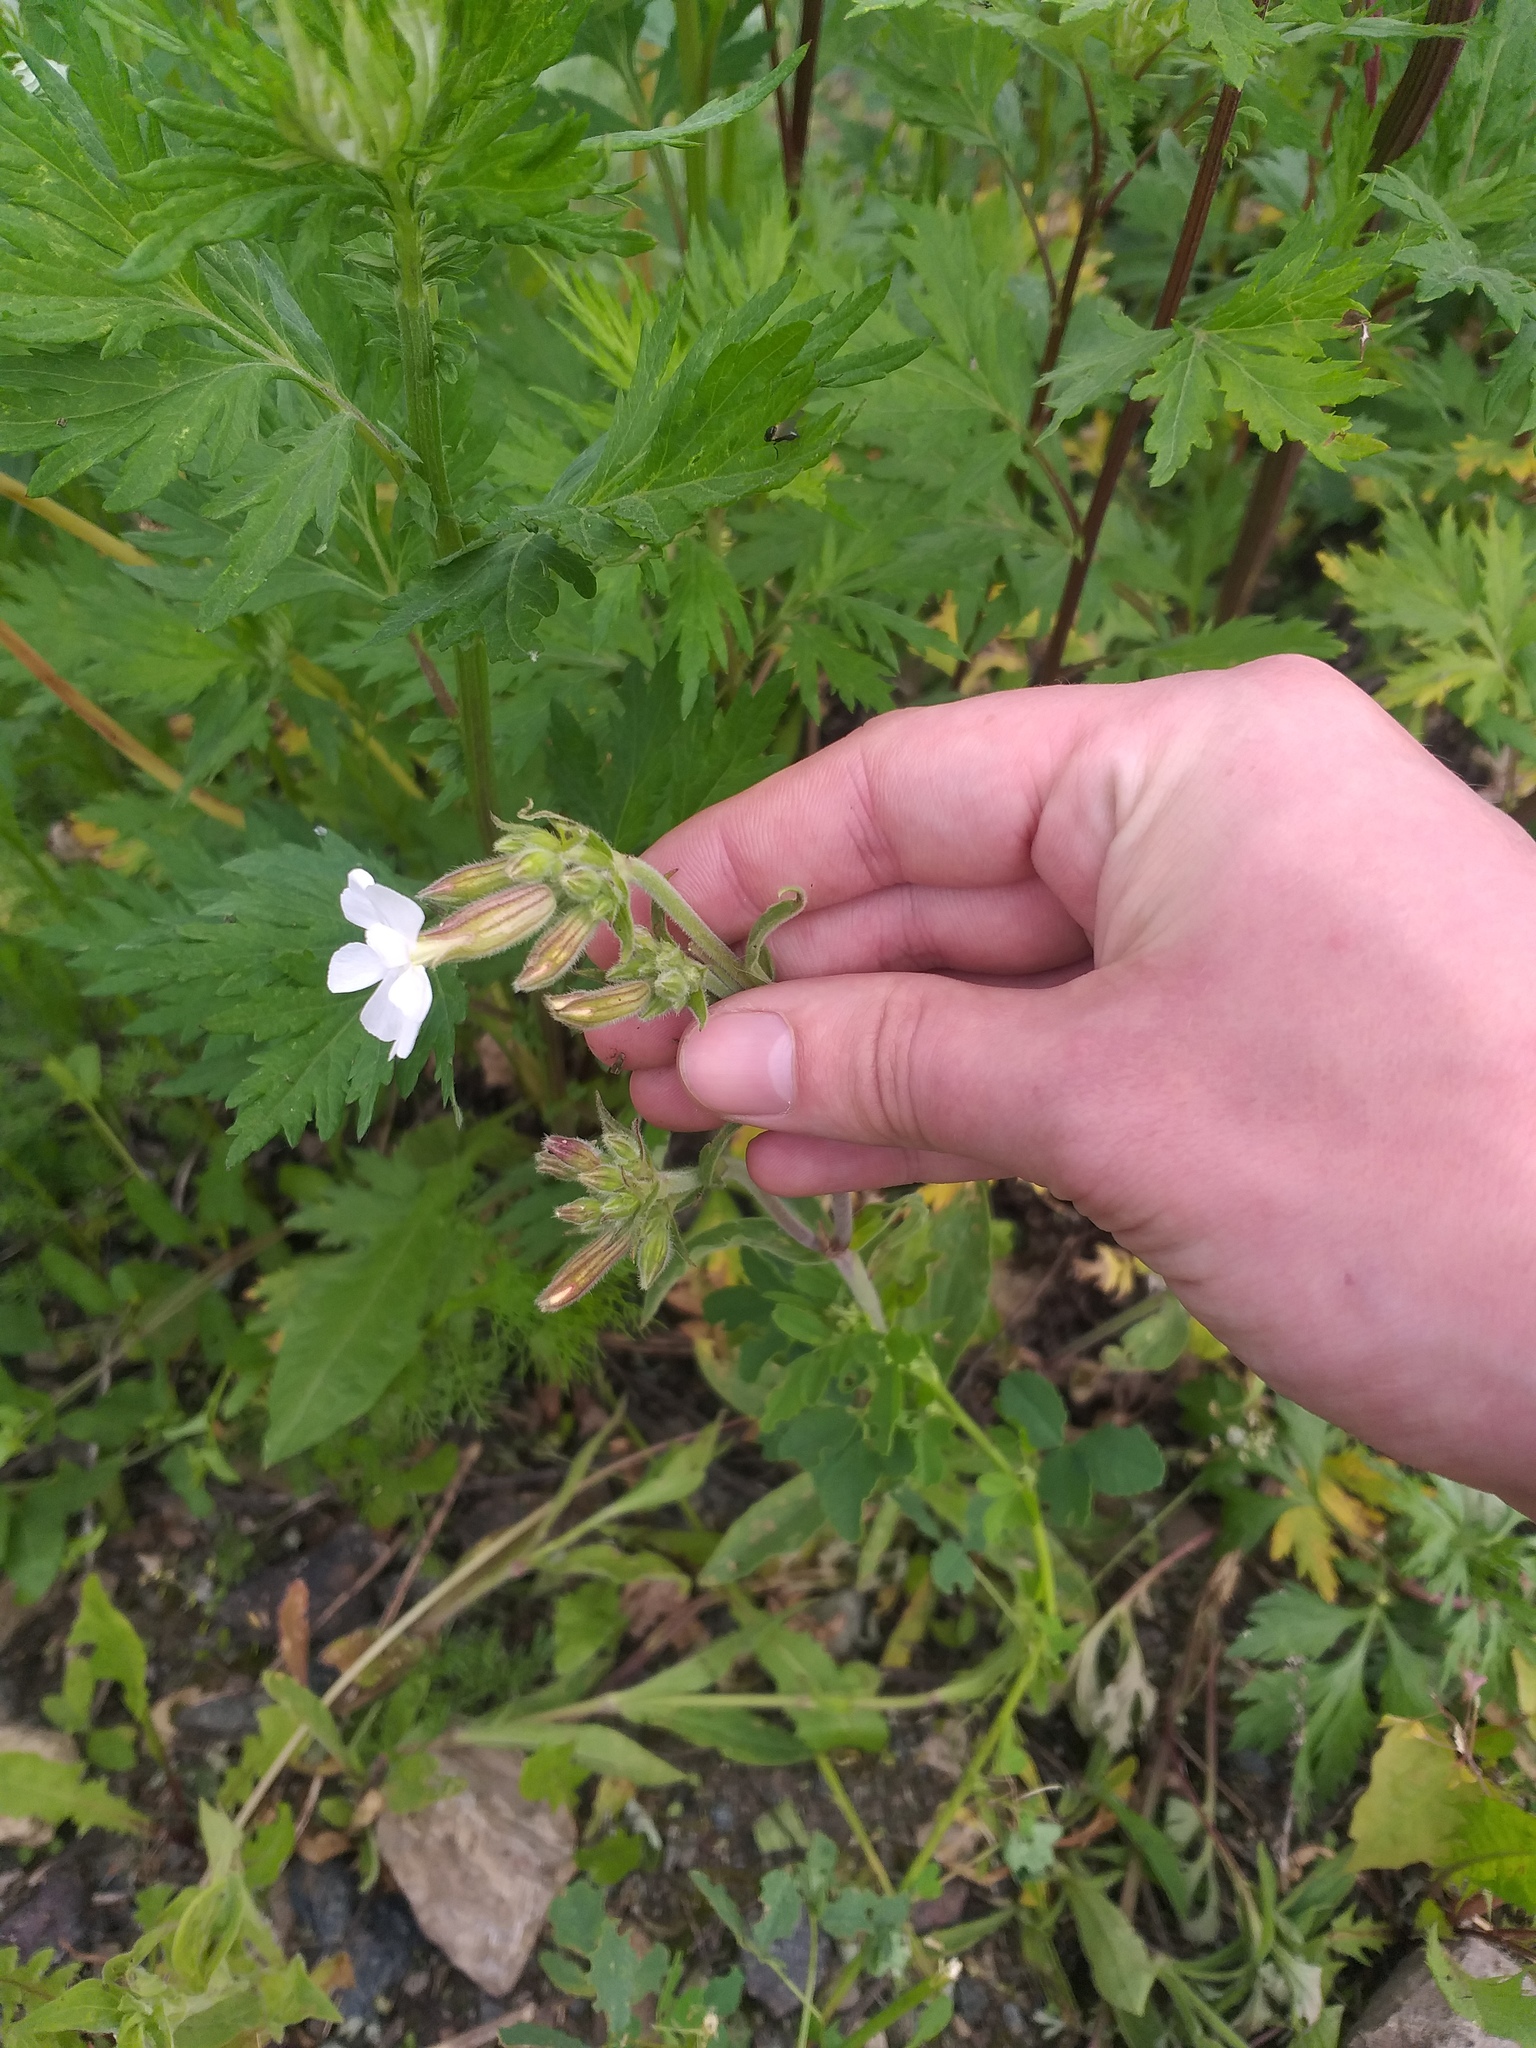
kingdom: Plantae
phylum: Tracheophyta
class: Magnoliopsida
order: Caryophyllales
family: Caryophyllaceae
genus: Silene
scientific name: Silene latifolia
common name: White campion
